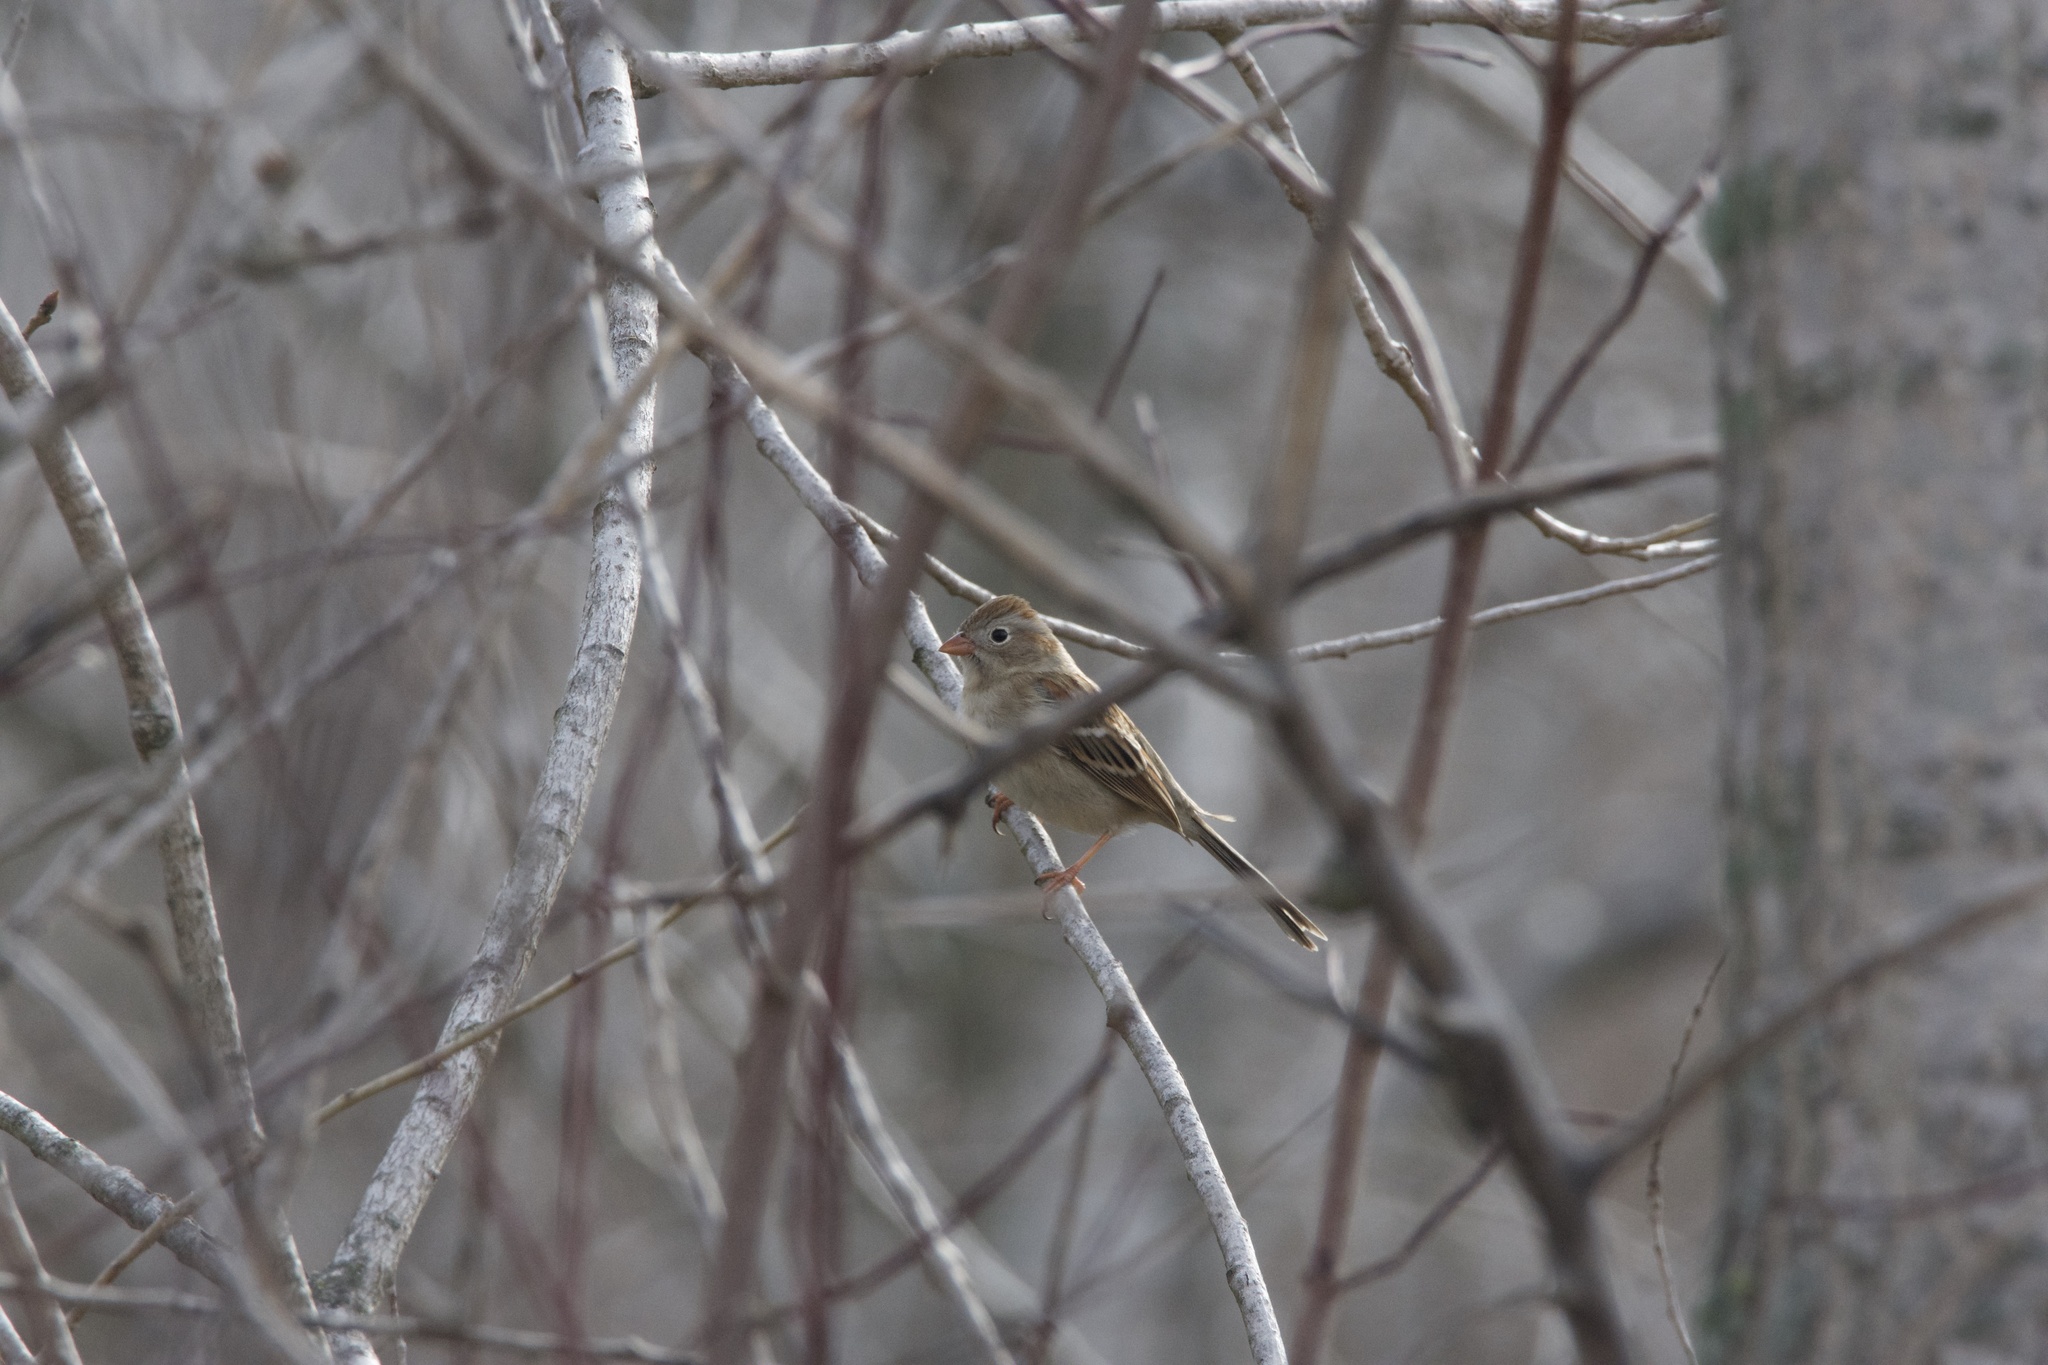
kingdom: Animalia
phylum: Chordata
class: Aves
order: Passeriformes
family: Passerellidae
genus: Spizella
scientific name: Spizella pusilla
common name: Field sparrow
